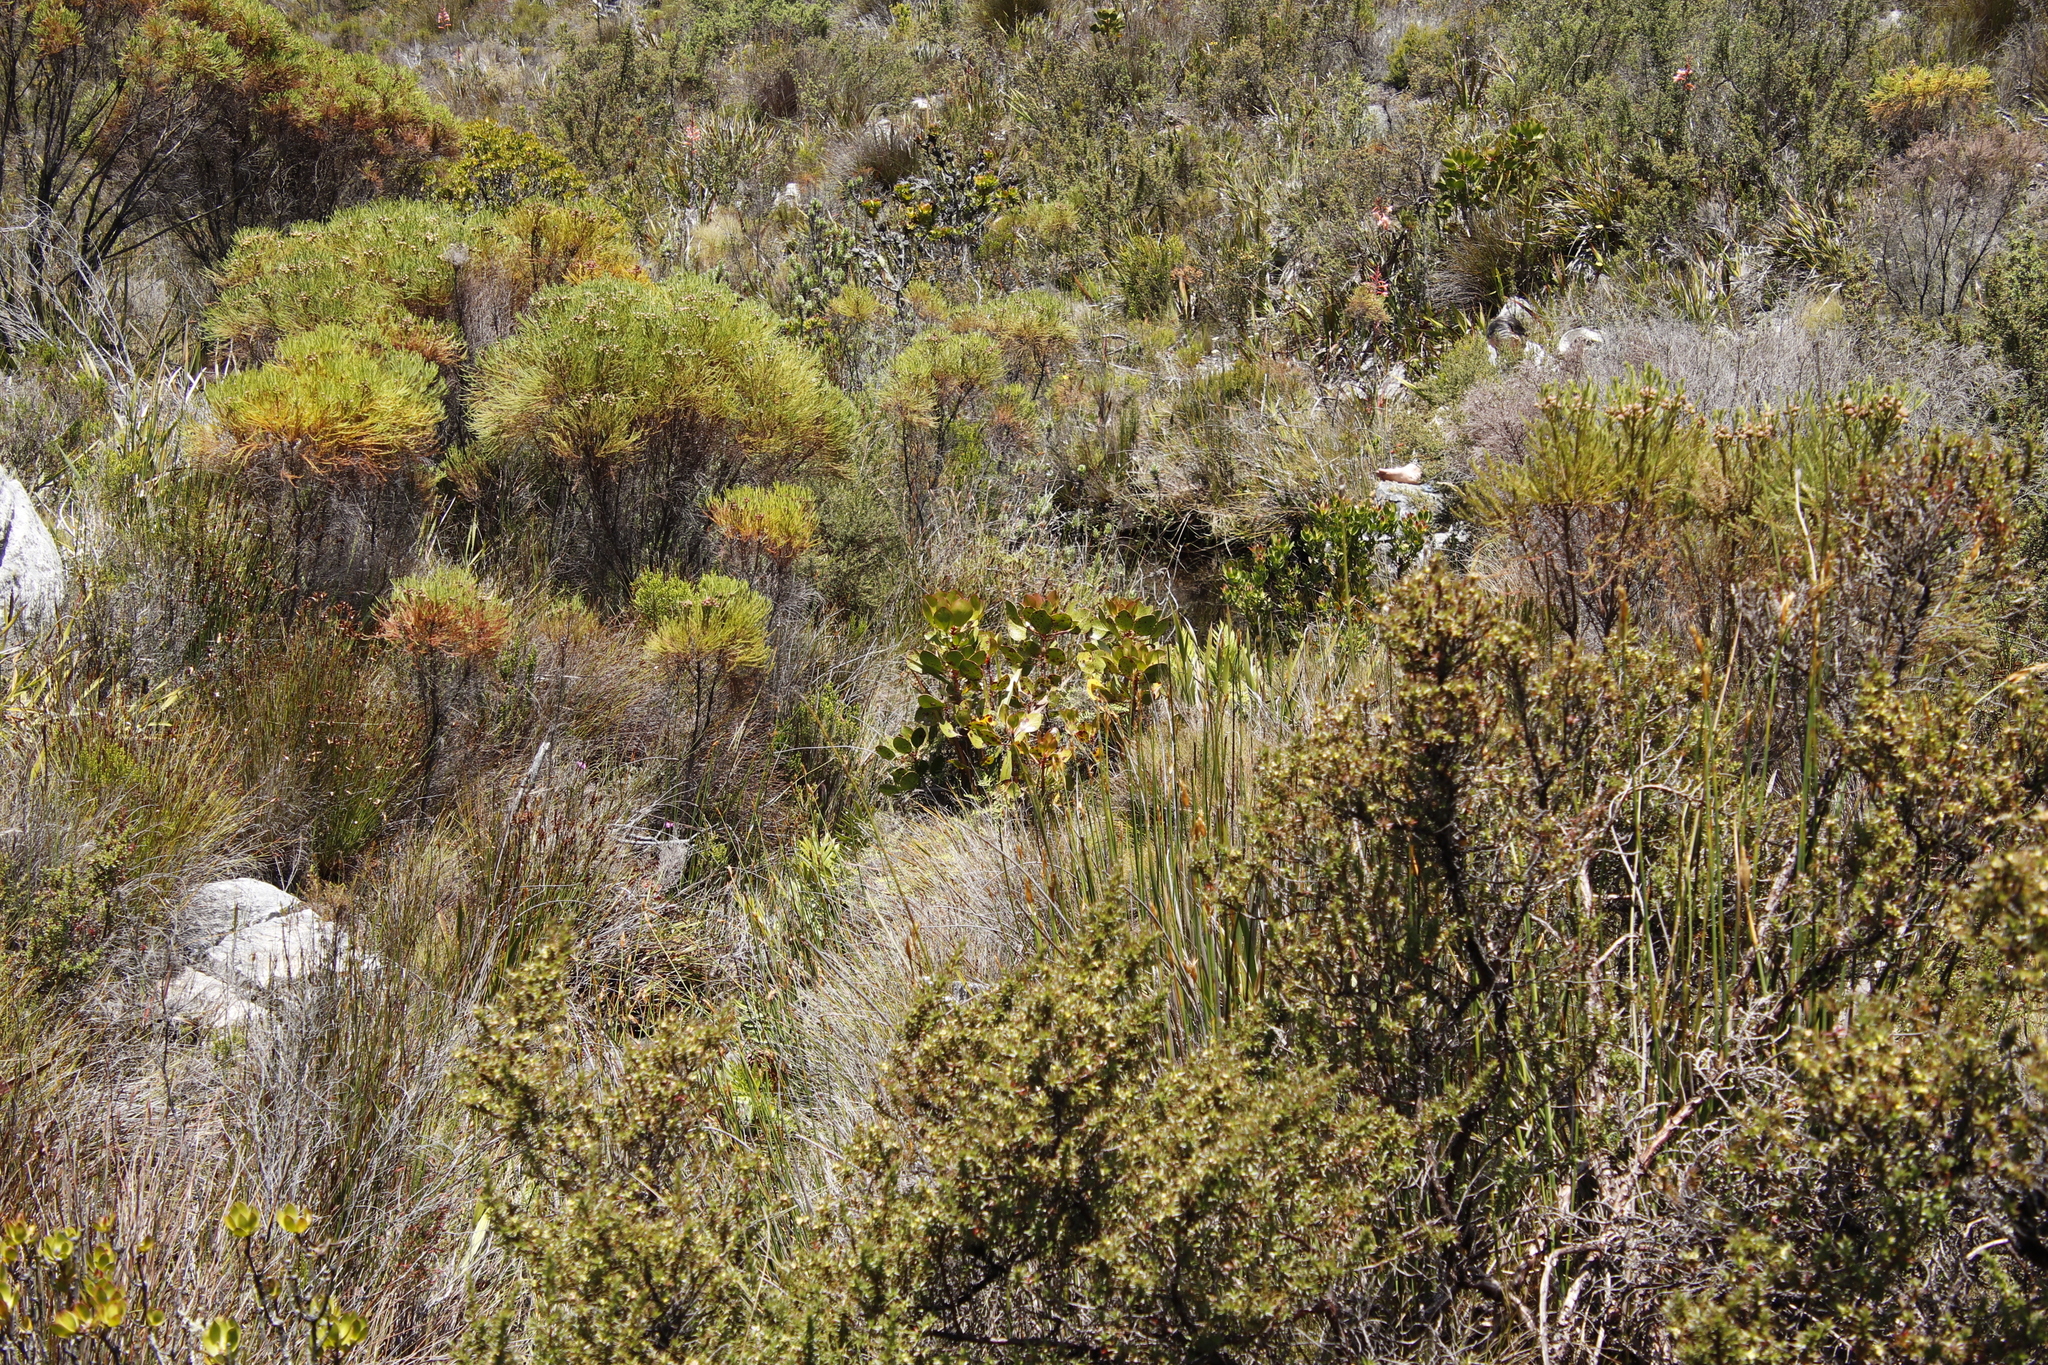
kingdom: Plantae
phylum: Tracheophyta
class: Magnoliopsida
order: Proteales
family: Proteaceae
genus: Protea
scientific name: Protea cynaroides
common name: King protea
